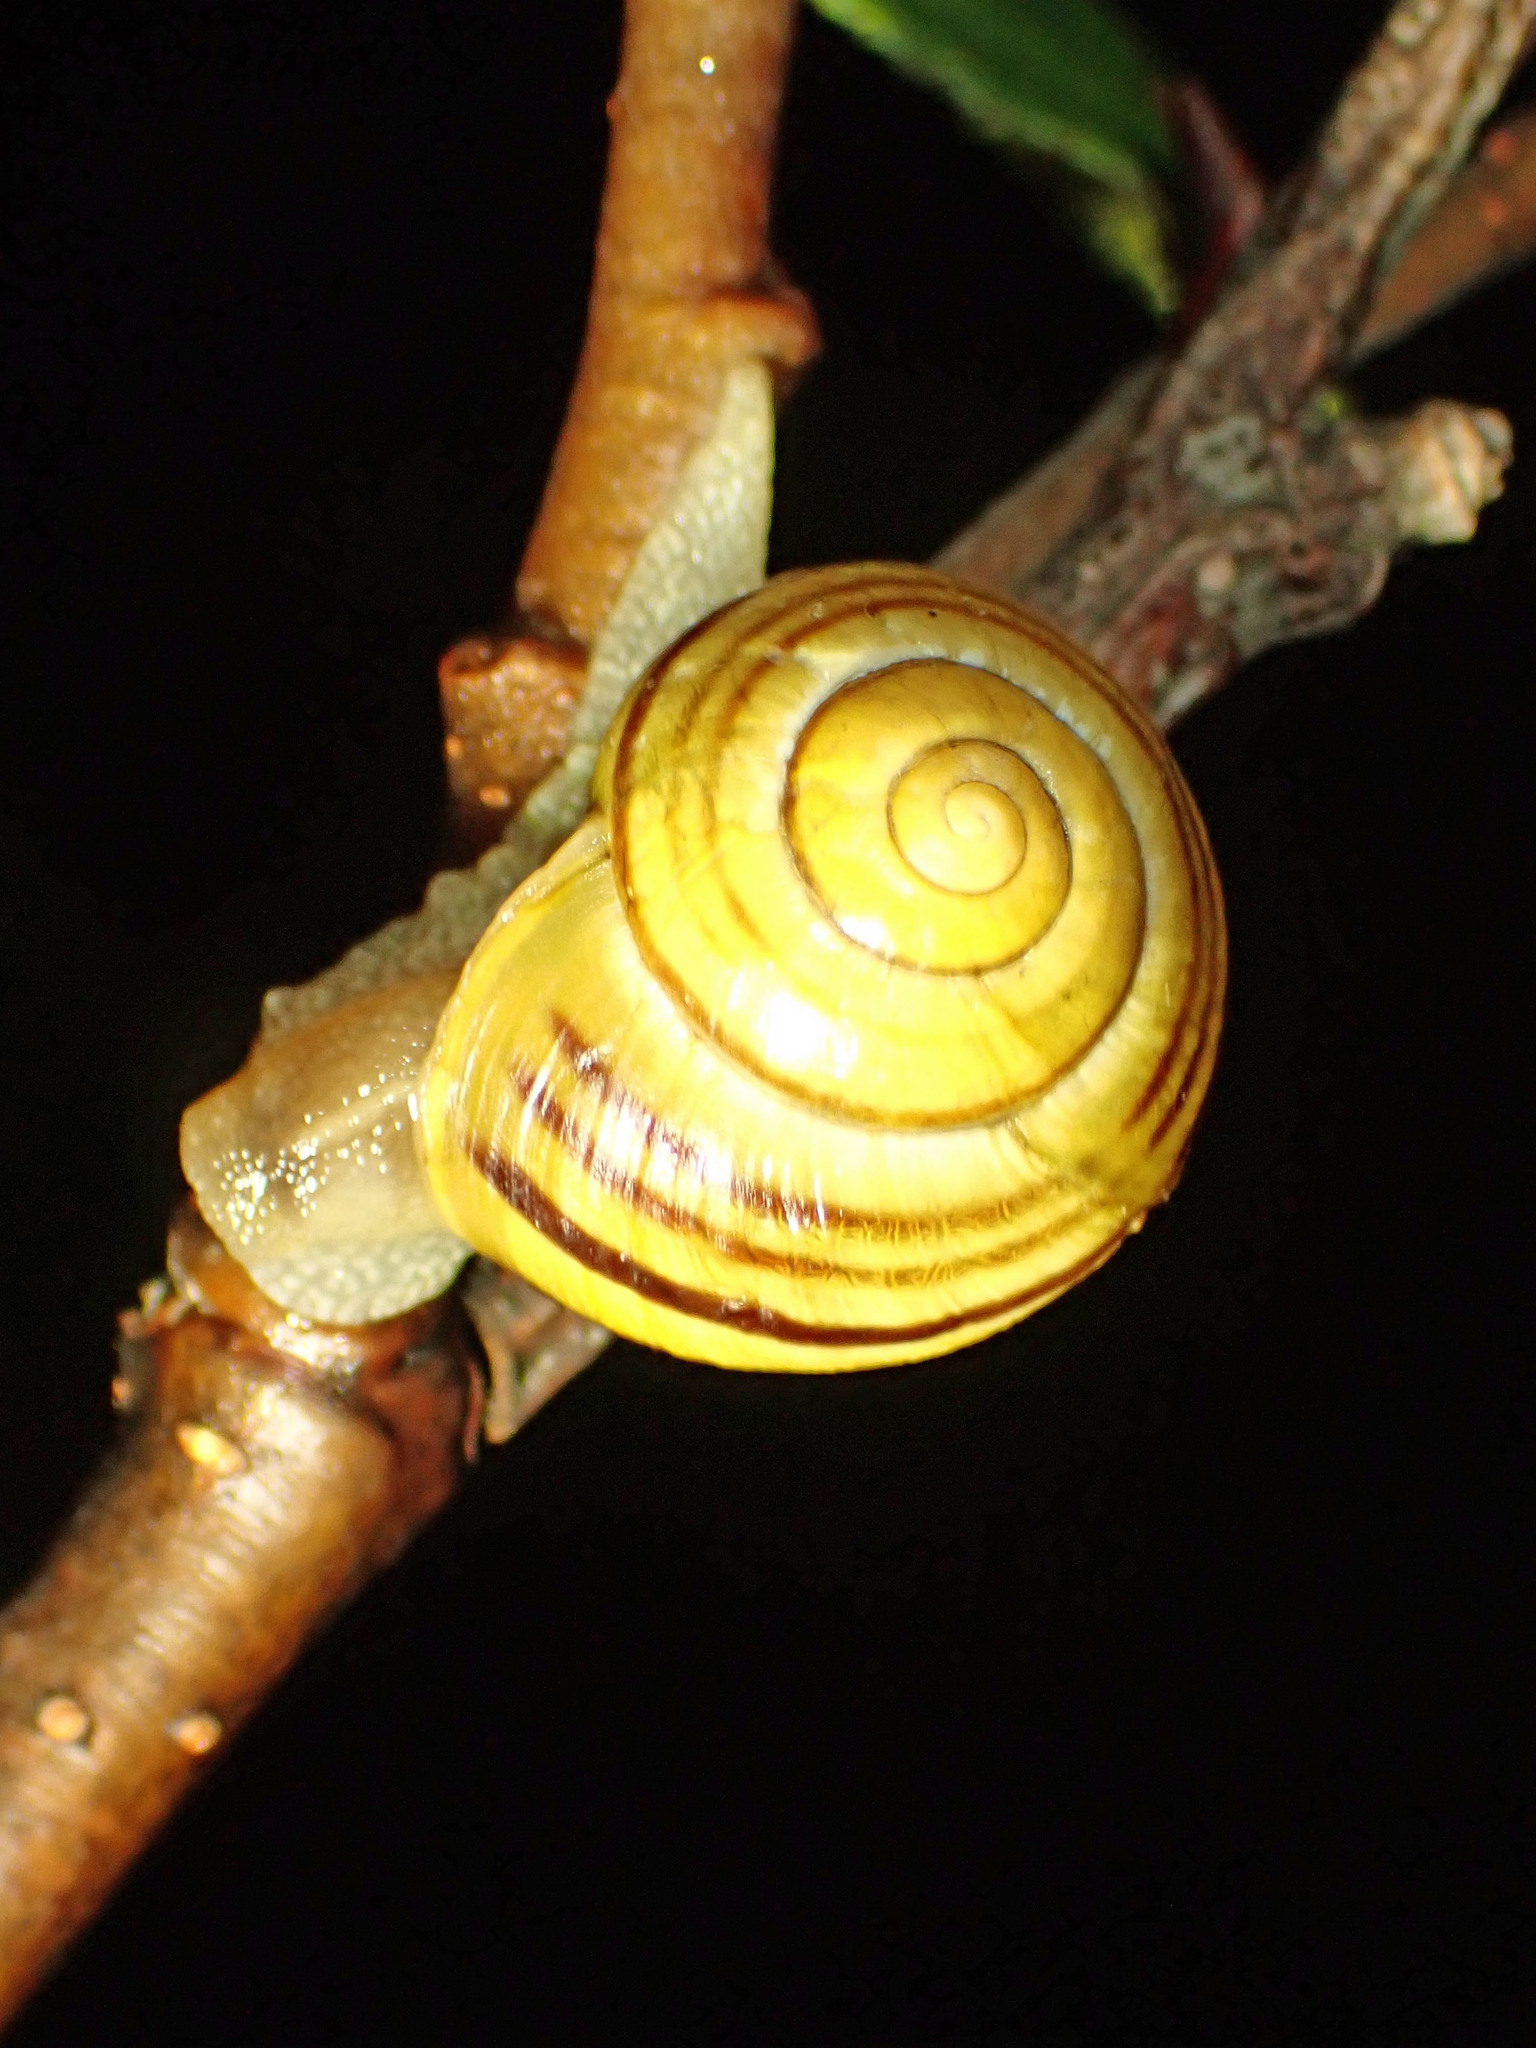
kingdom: Animalia
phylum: Mollusca
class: Gastropoda
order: Stylommatophora
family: Helicidae
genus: Cepaea
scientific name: Cepaea
